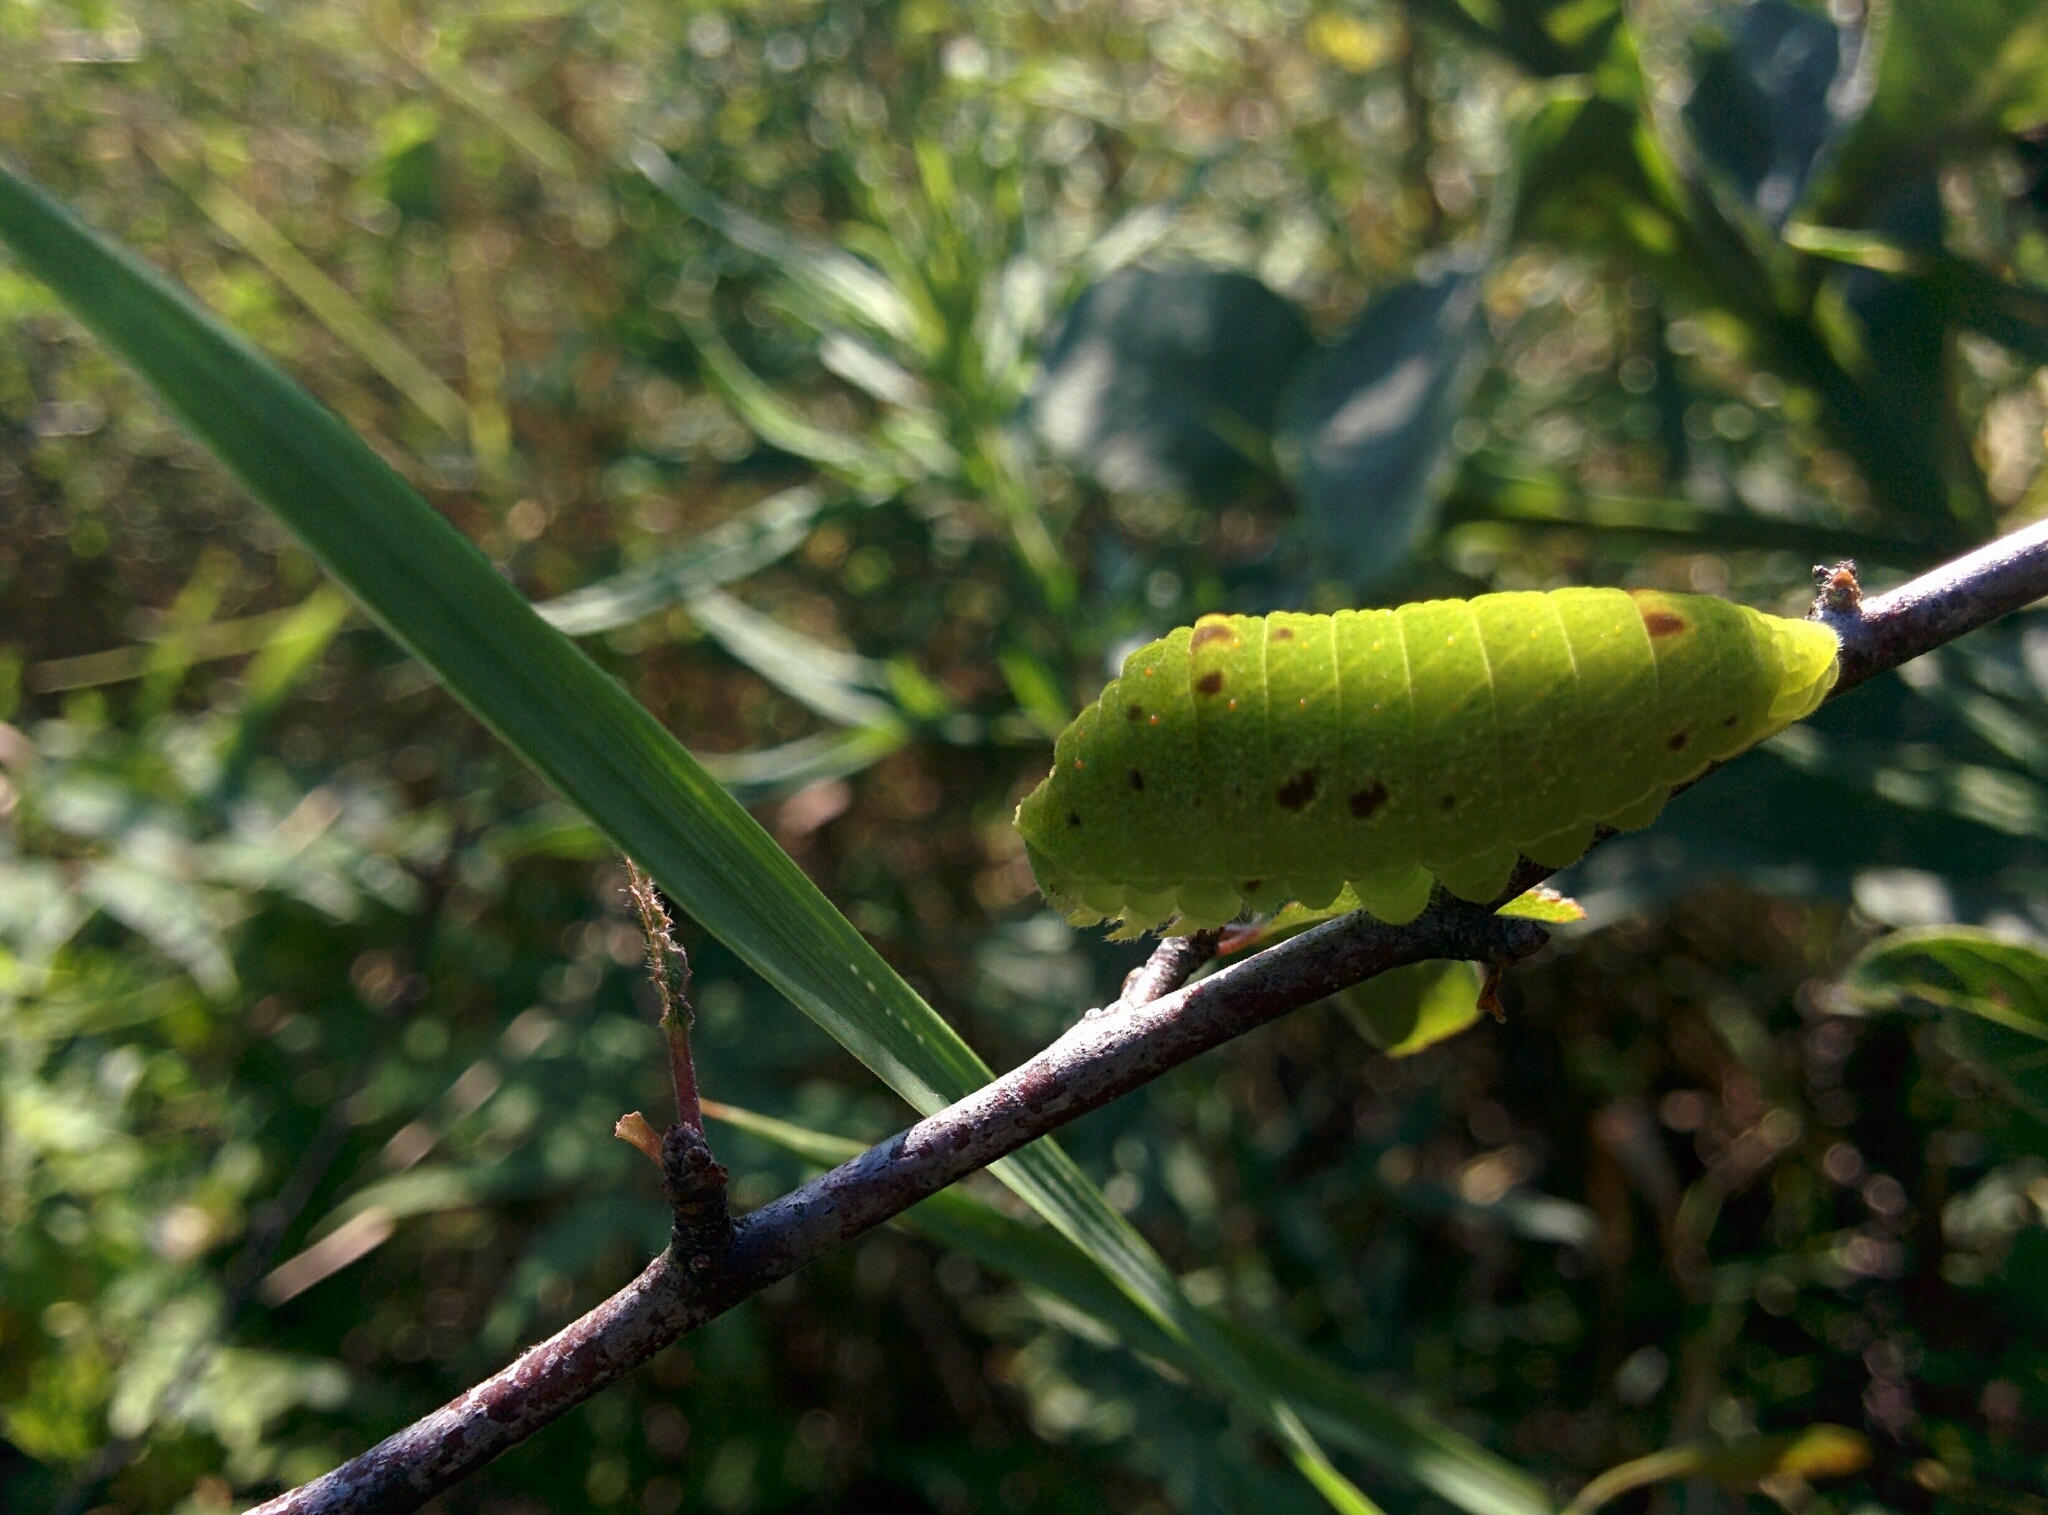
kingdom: Animalia
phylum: Arthropoda
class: Insecta
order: Lepidoptera
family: Papilionidae
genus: Iphiclides
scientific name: Iphiclides podalirius
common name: Scarce swallowtail
